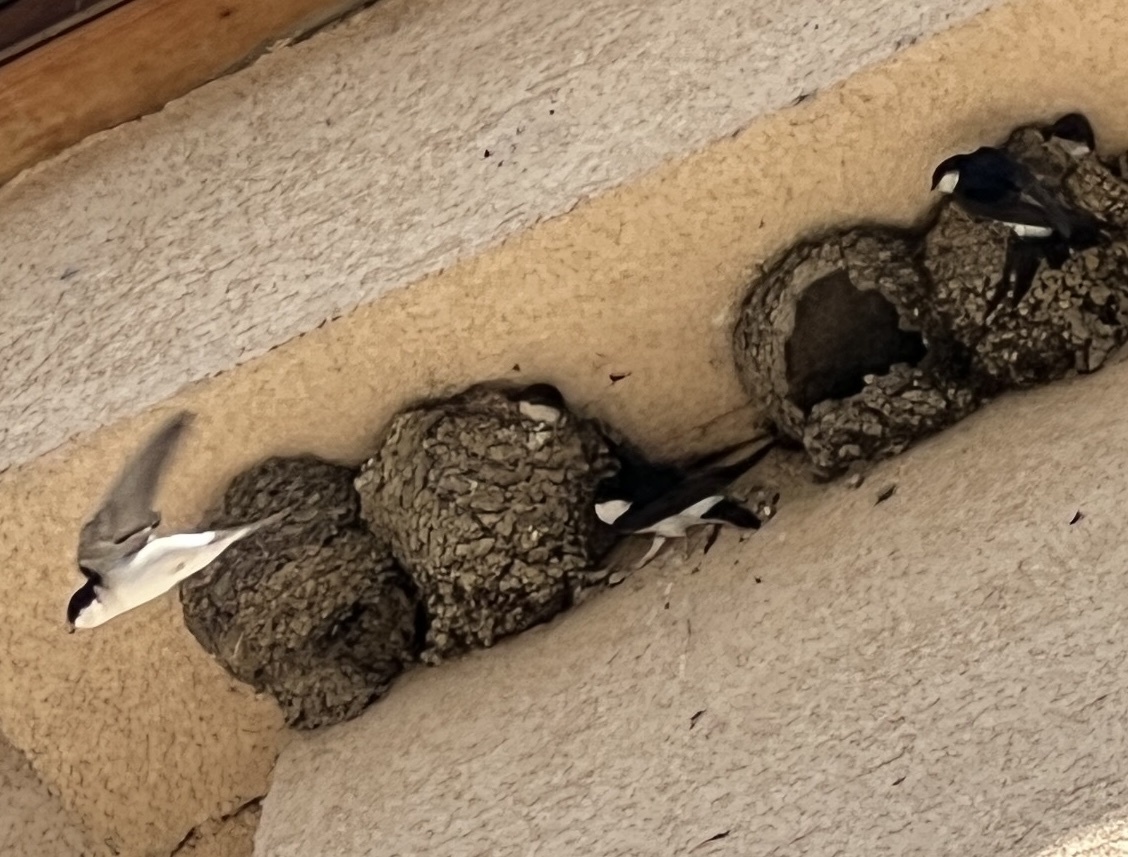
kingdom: Animalia
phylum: Chordata
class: Aves
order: Passeriformes
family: Hirundinidae
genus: Delichon
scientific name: Delichon urbicum
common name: Common house martin
